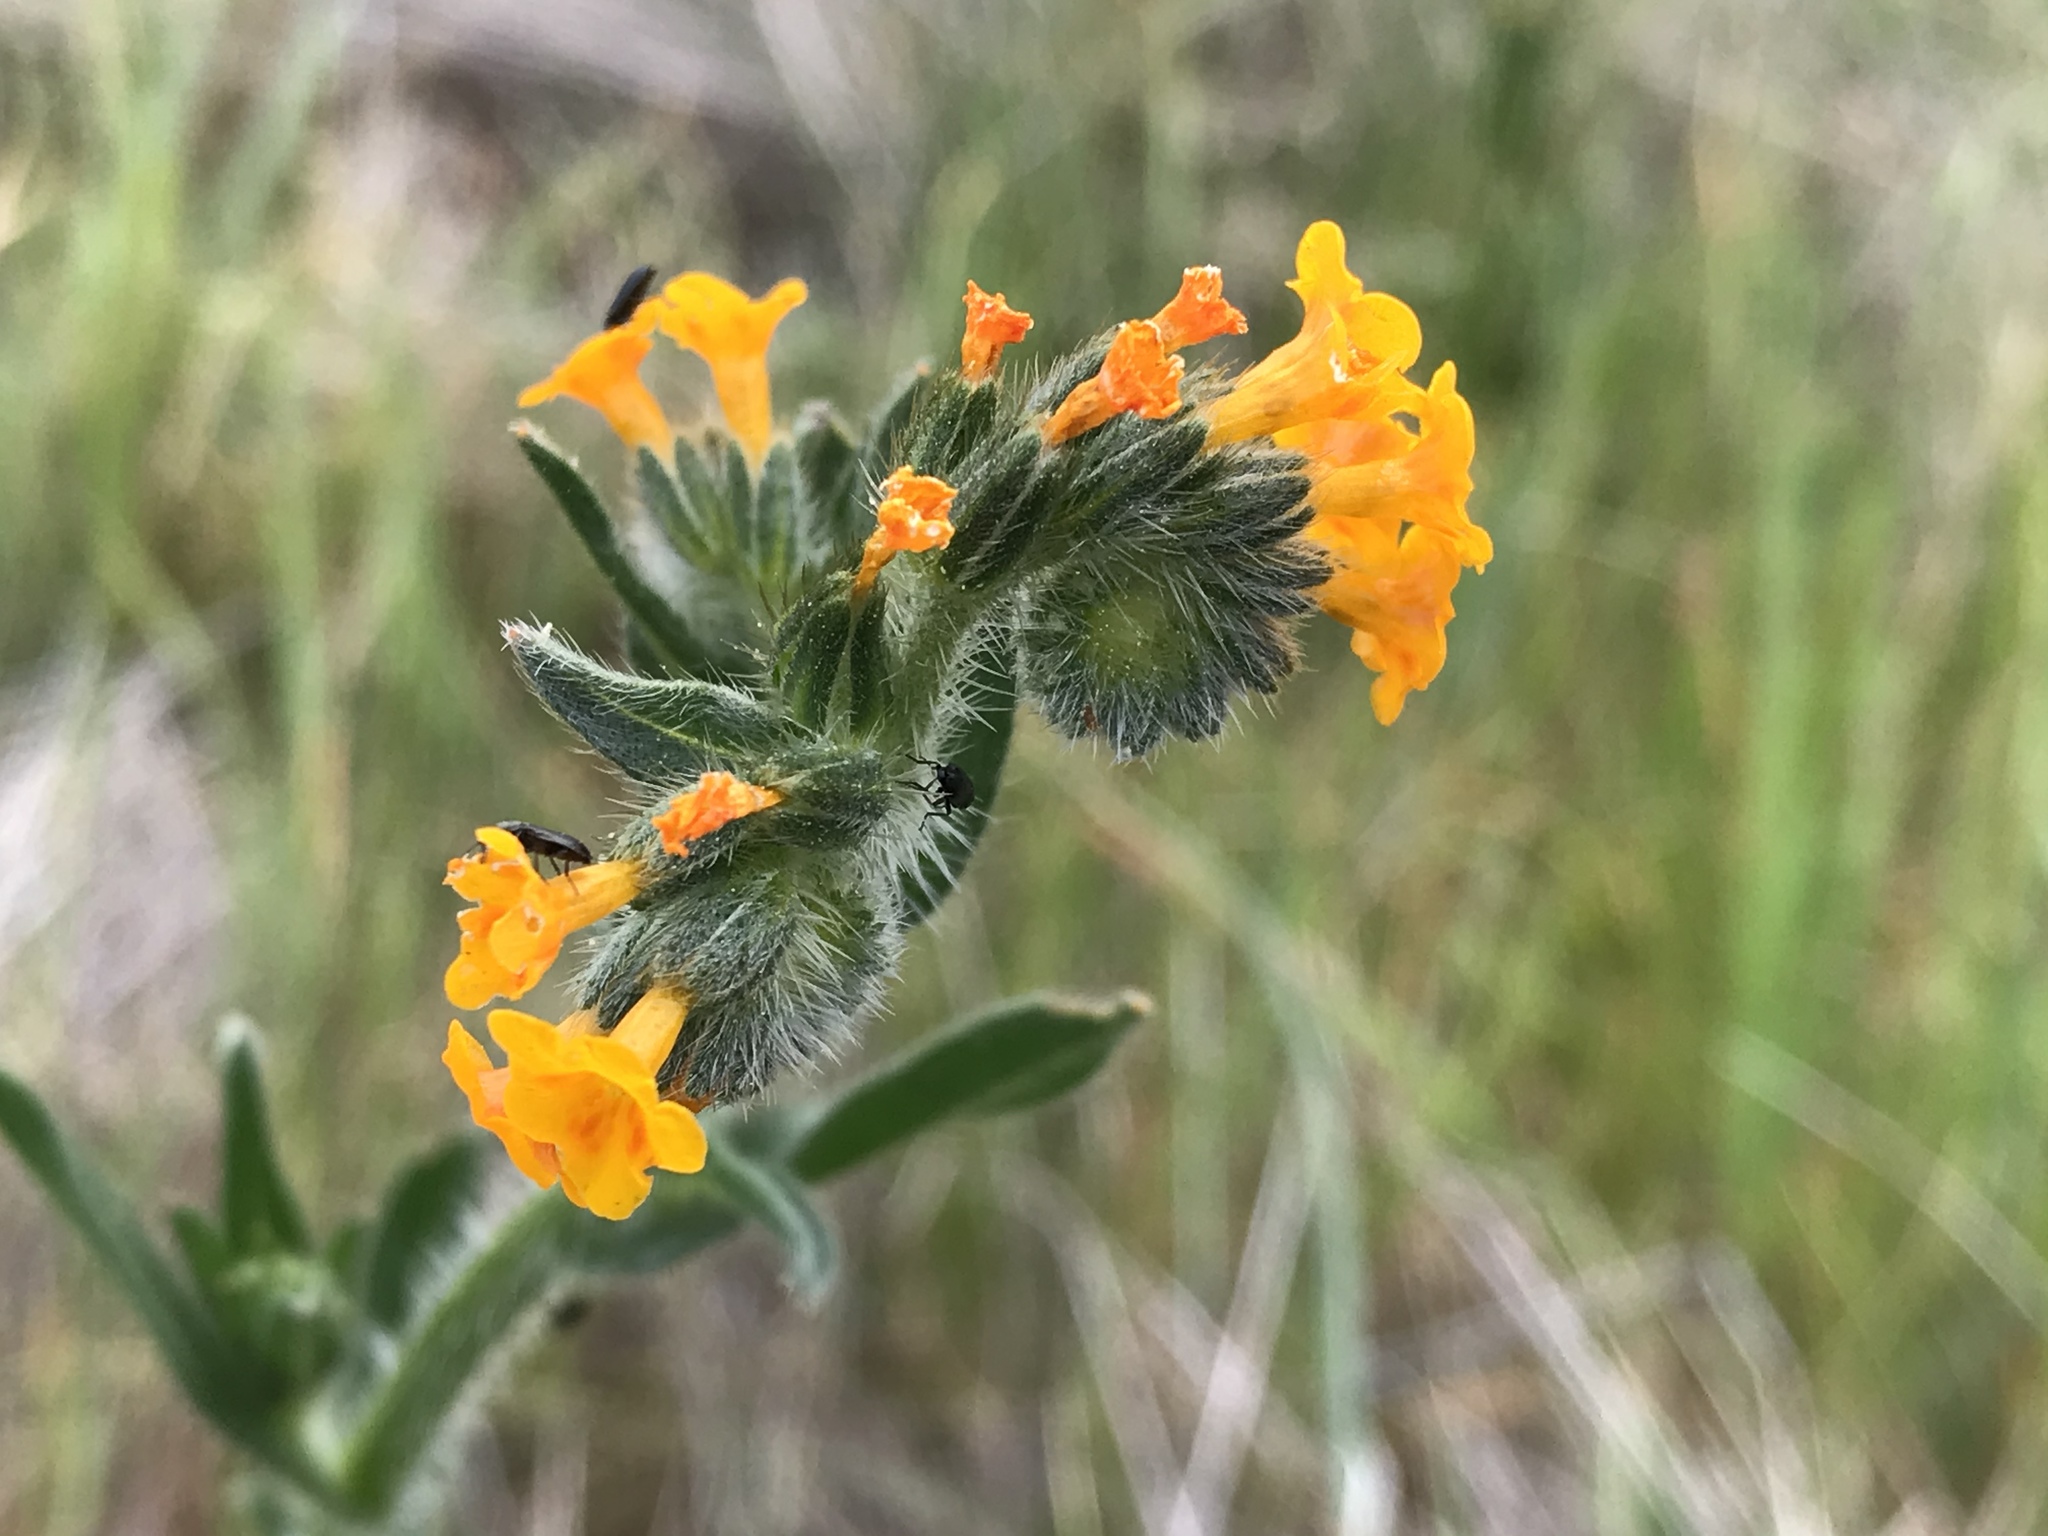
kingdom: Plantae
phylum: Tracheophyta
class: Magnoliopsida
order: Boraginales
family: Boraginaceae
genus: Amsinckia
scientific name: Amsinckia menziesii
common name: Menzies' fiddleneck
